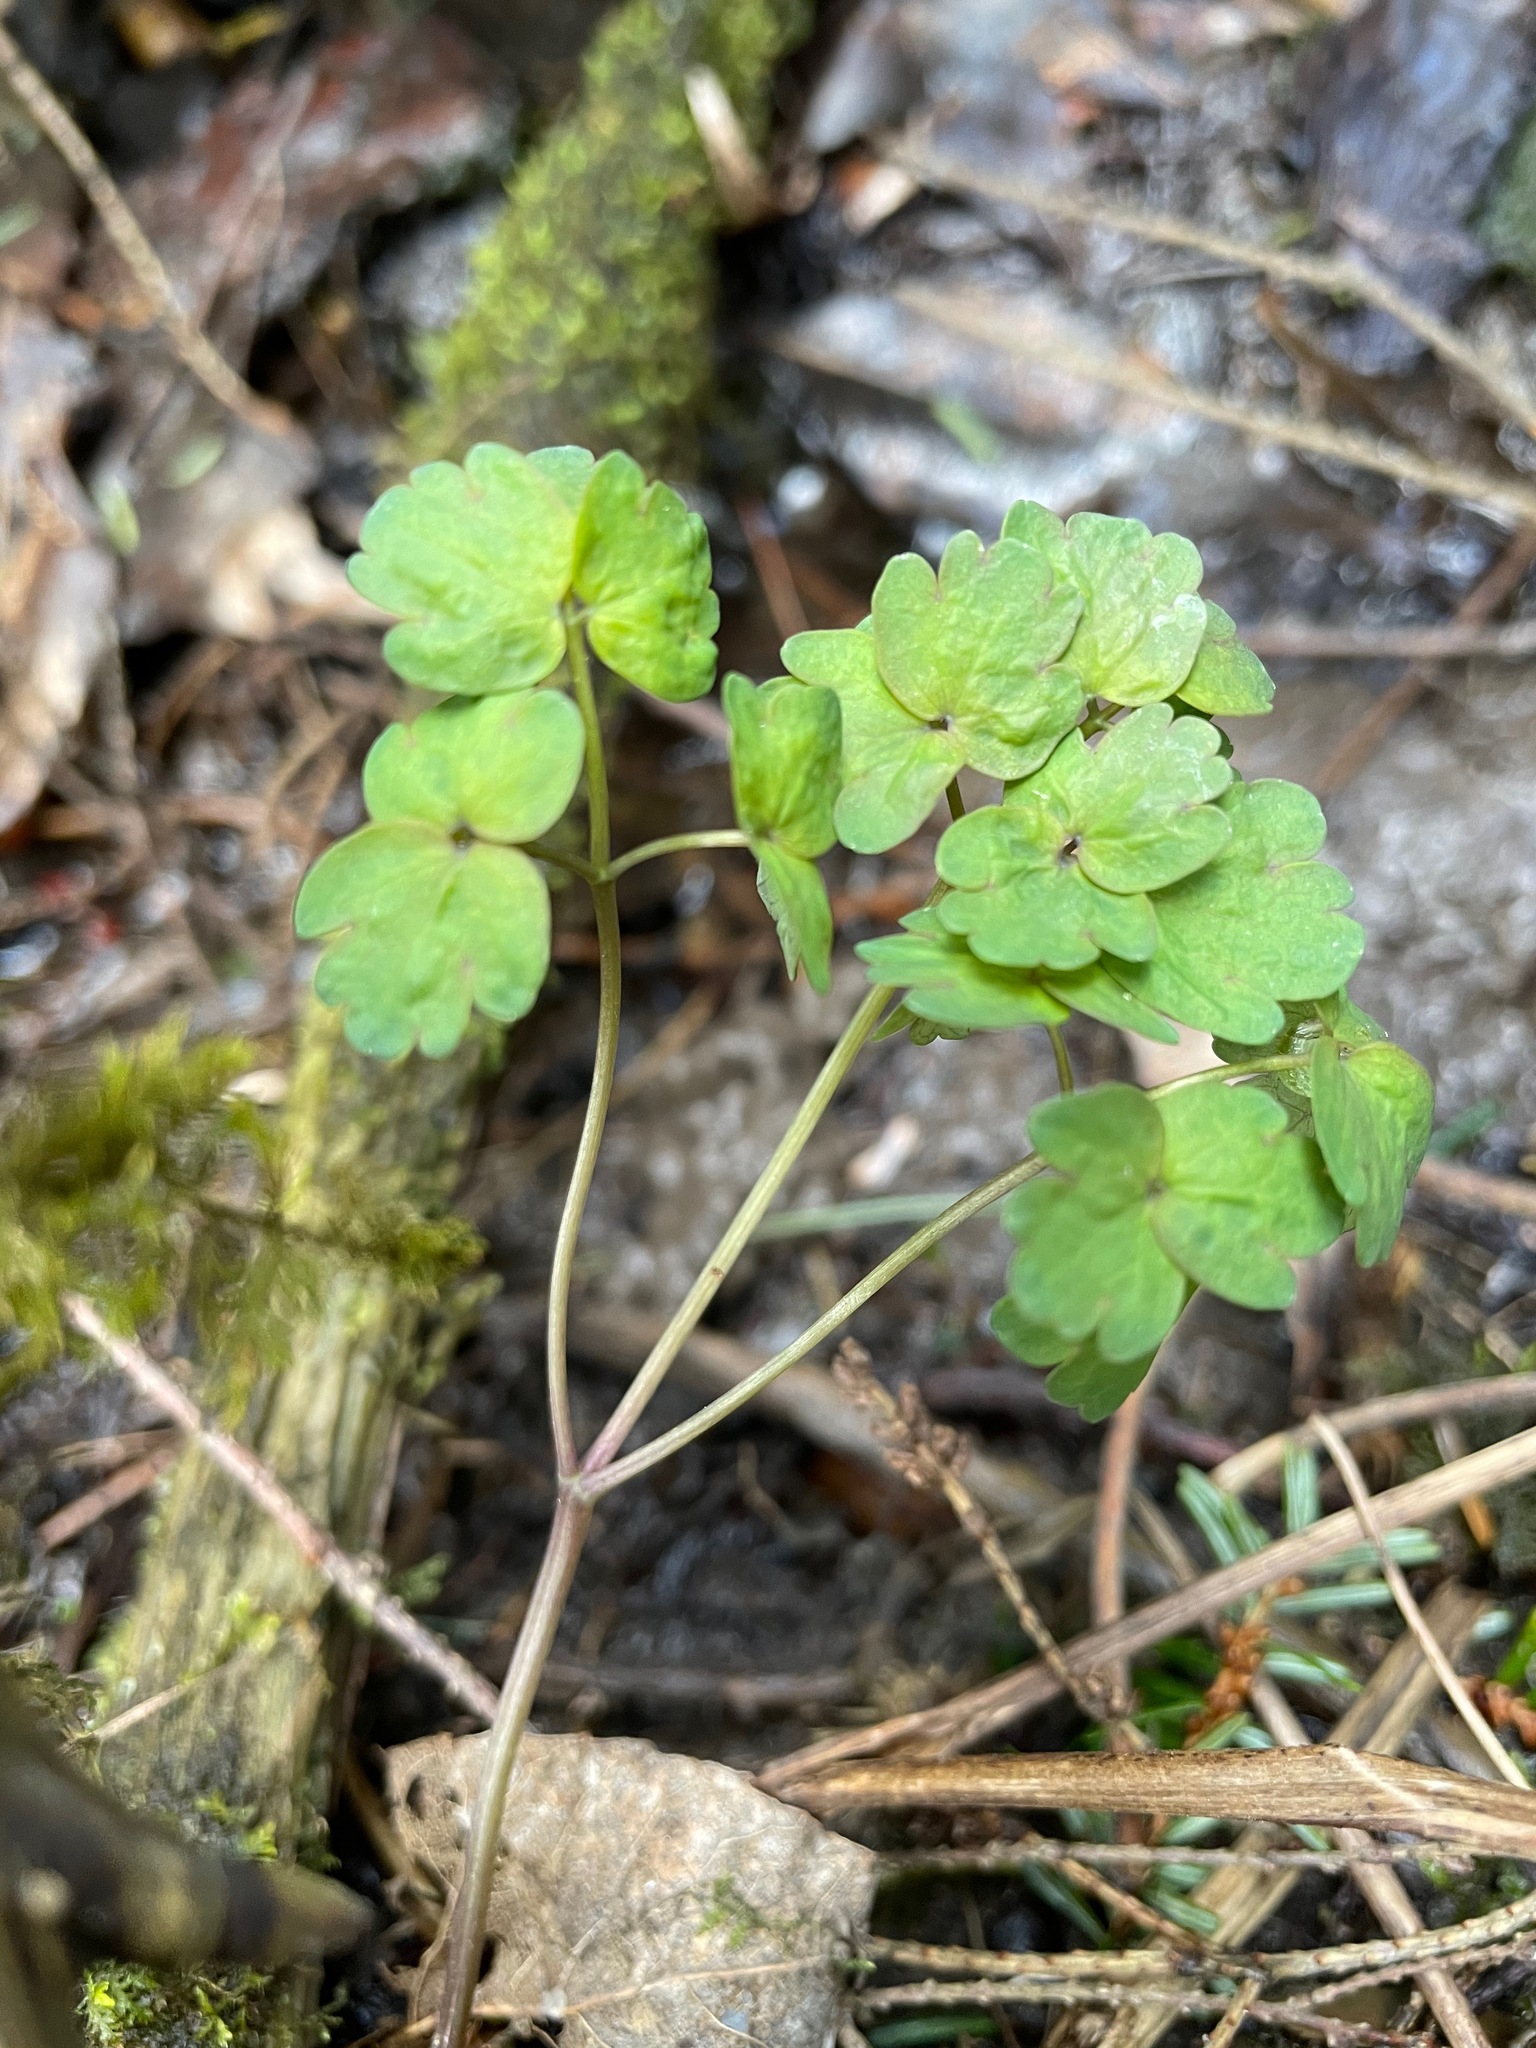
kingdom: Plantae
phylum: Tracheophyta
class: Magnoliopsida
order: Ranunculales
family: Ranunculaceae
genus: Thalictrum
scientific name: Thalictrum dioicum
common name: Early meadow-rue
